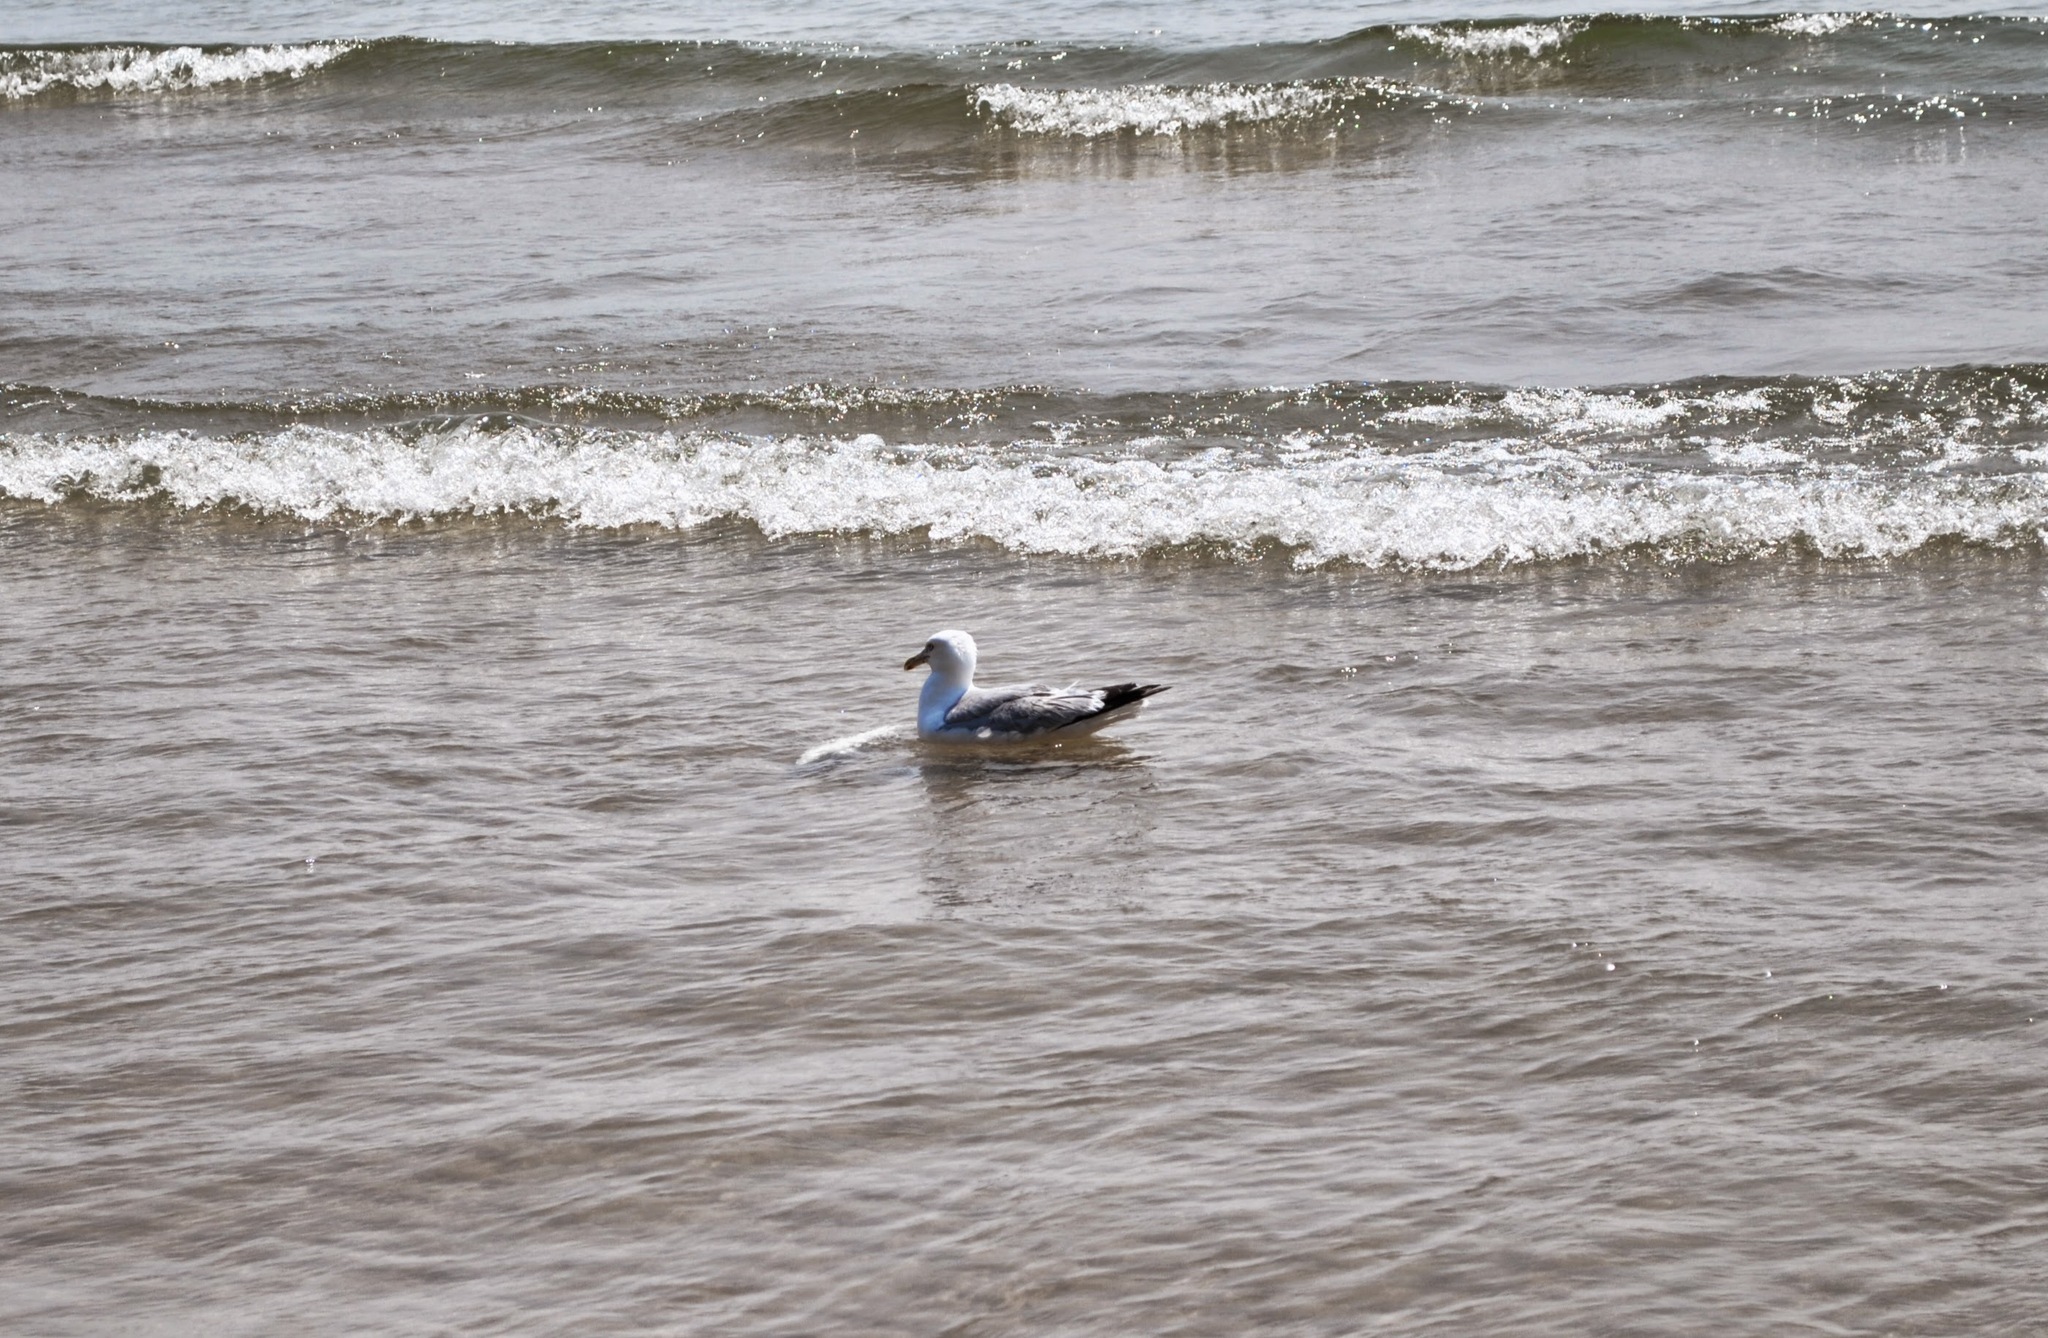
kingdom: Animalia
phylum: Chordata
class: Aves
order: Charadriiformes
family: Laridae
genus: Larus
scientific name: Larus argentatus
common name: Herring gull
